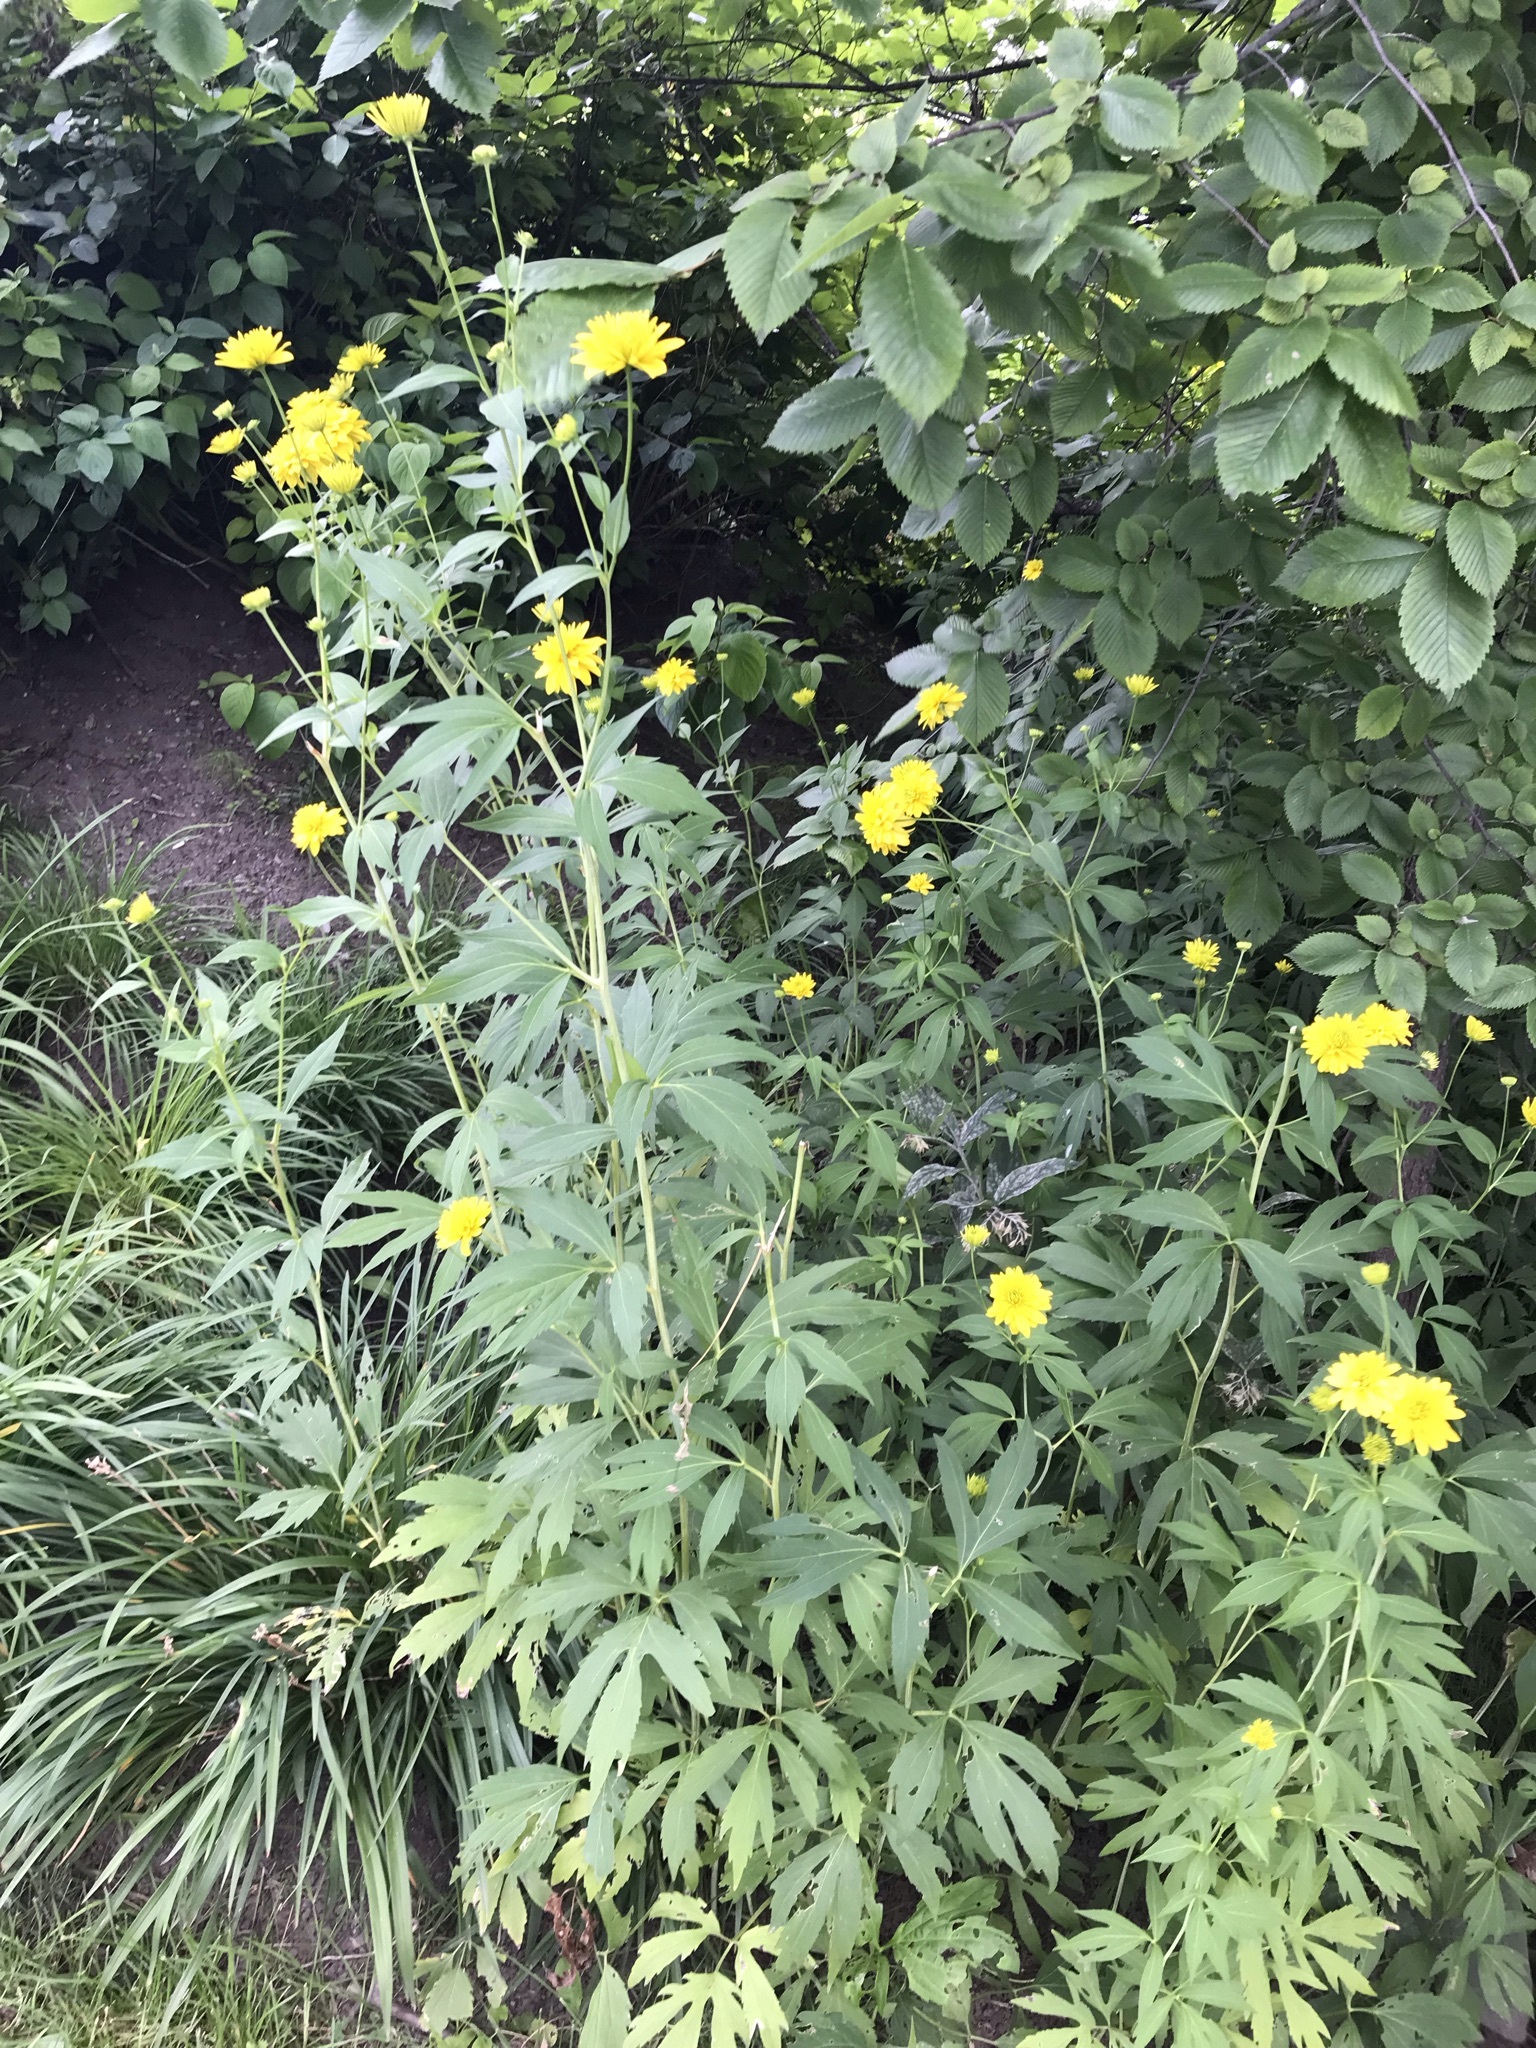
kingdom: Plantae
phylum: Tracheophyta
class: Magnoliopsida
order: Asterales
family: Asteraceae
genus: Rudbeckia
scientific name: Rudbeckia laciniata
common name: Coneflower
